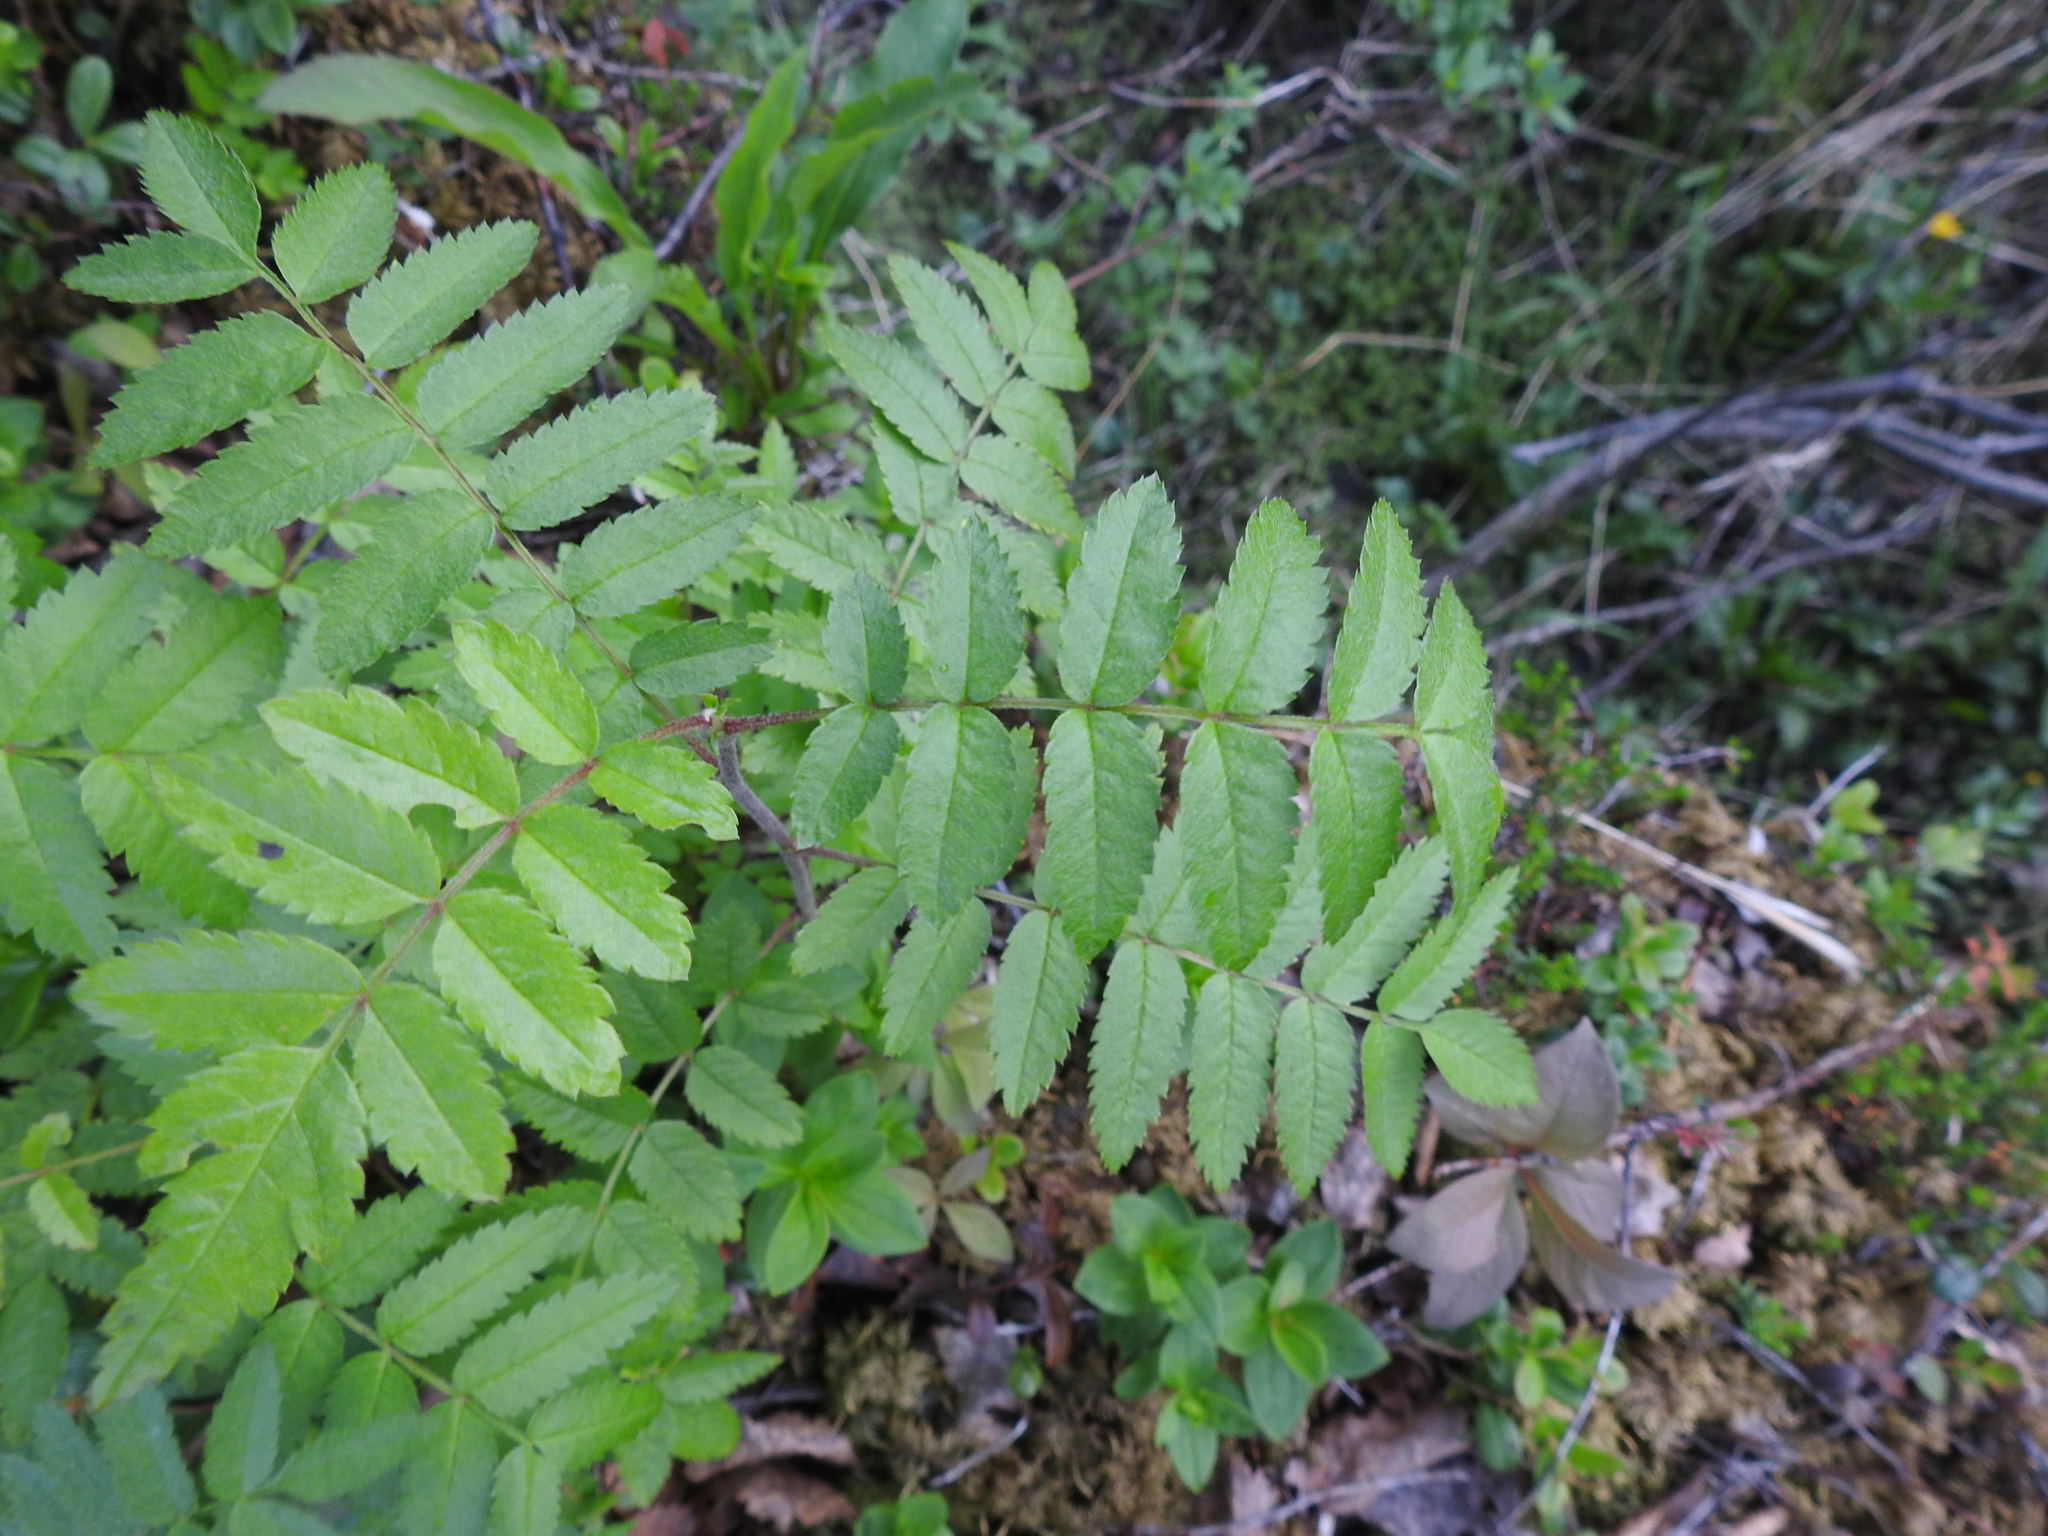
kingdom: Plantae
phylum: Tracheophyta
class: Magnoliopsida
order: Rosales
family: Rosaceae
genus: Sorbus
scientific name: Sorbus aucuparia
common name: Rowan
